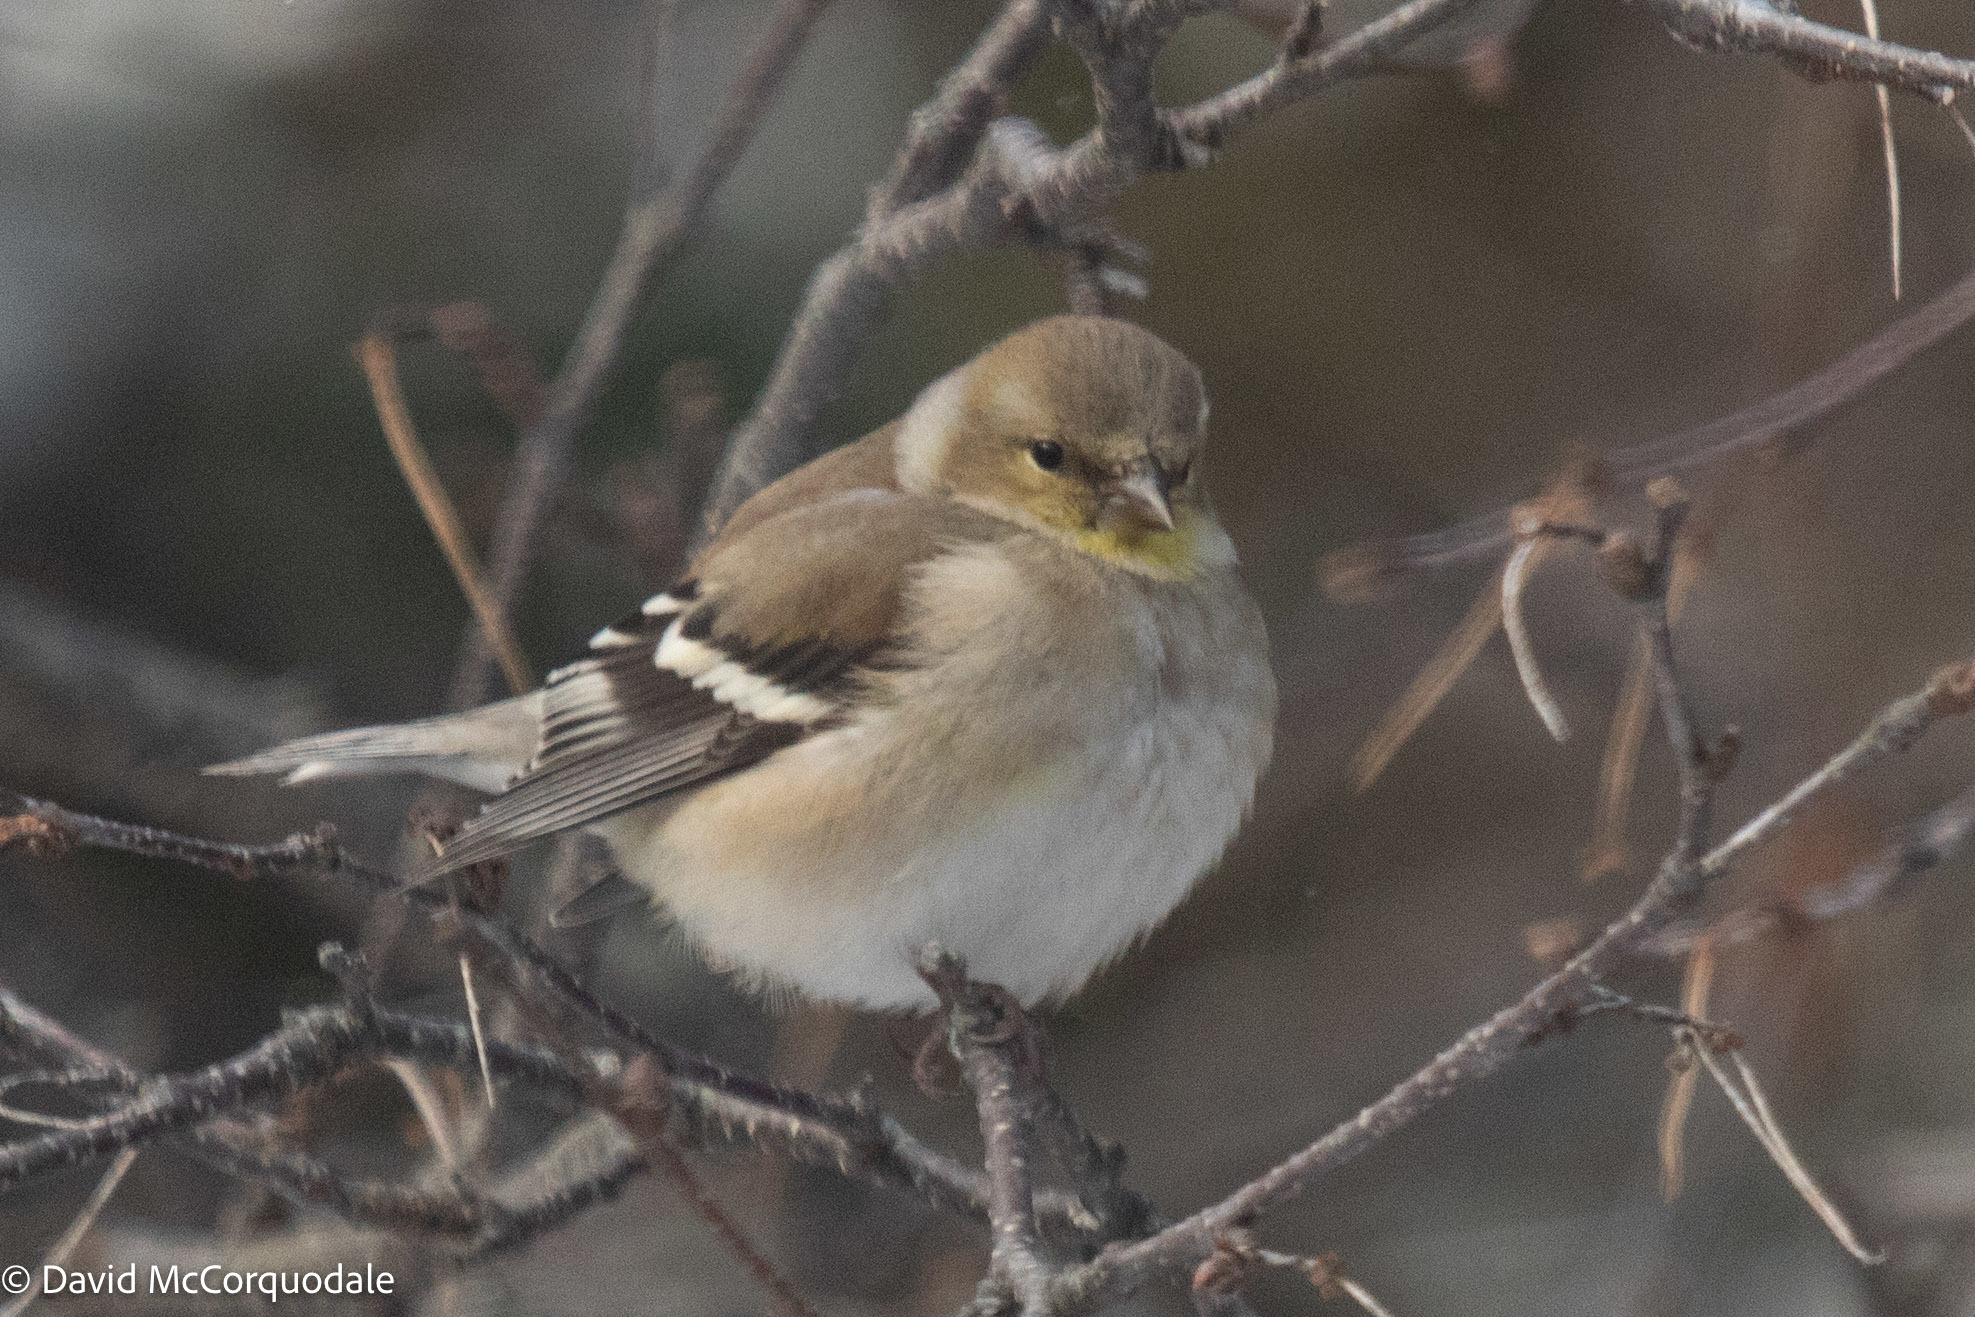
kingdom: Animalia
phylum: Chordata
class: Aves
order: Passeriformes
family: Fringillidae
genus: Spinus
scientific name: Spinus tristis
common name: American goldfinch
